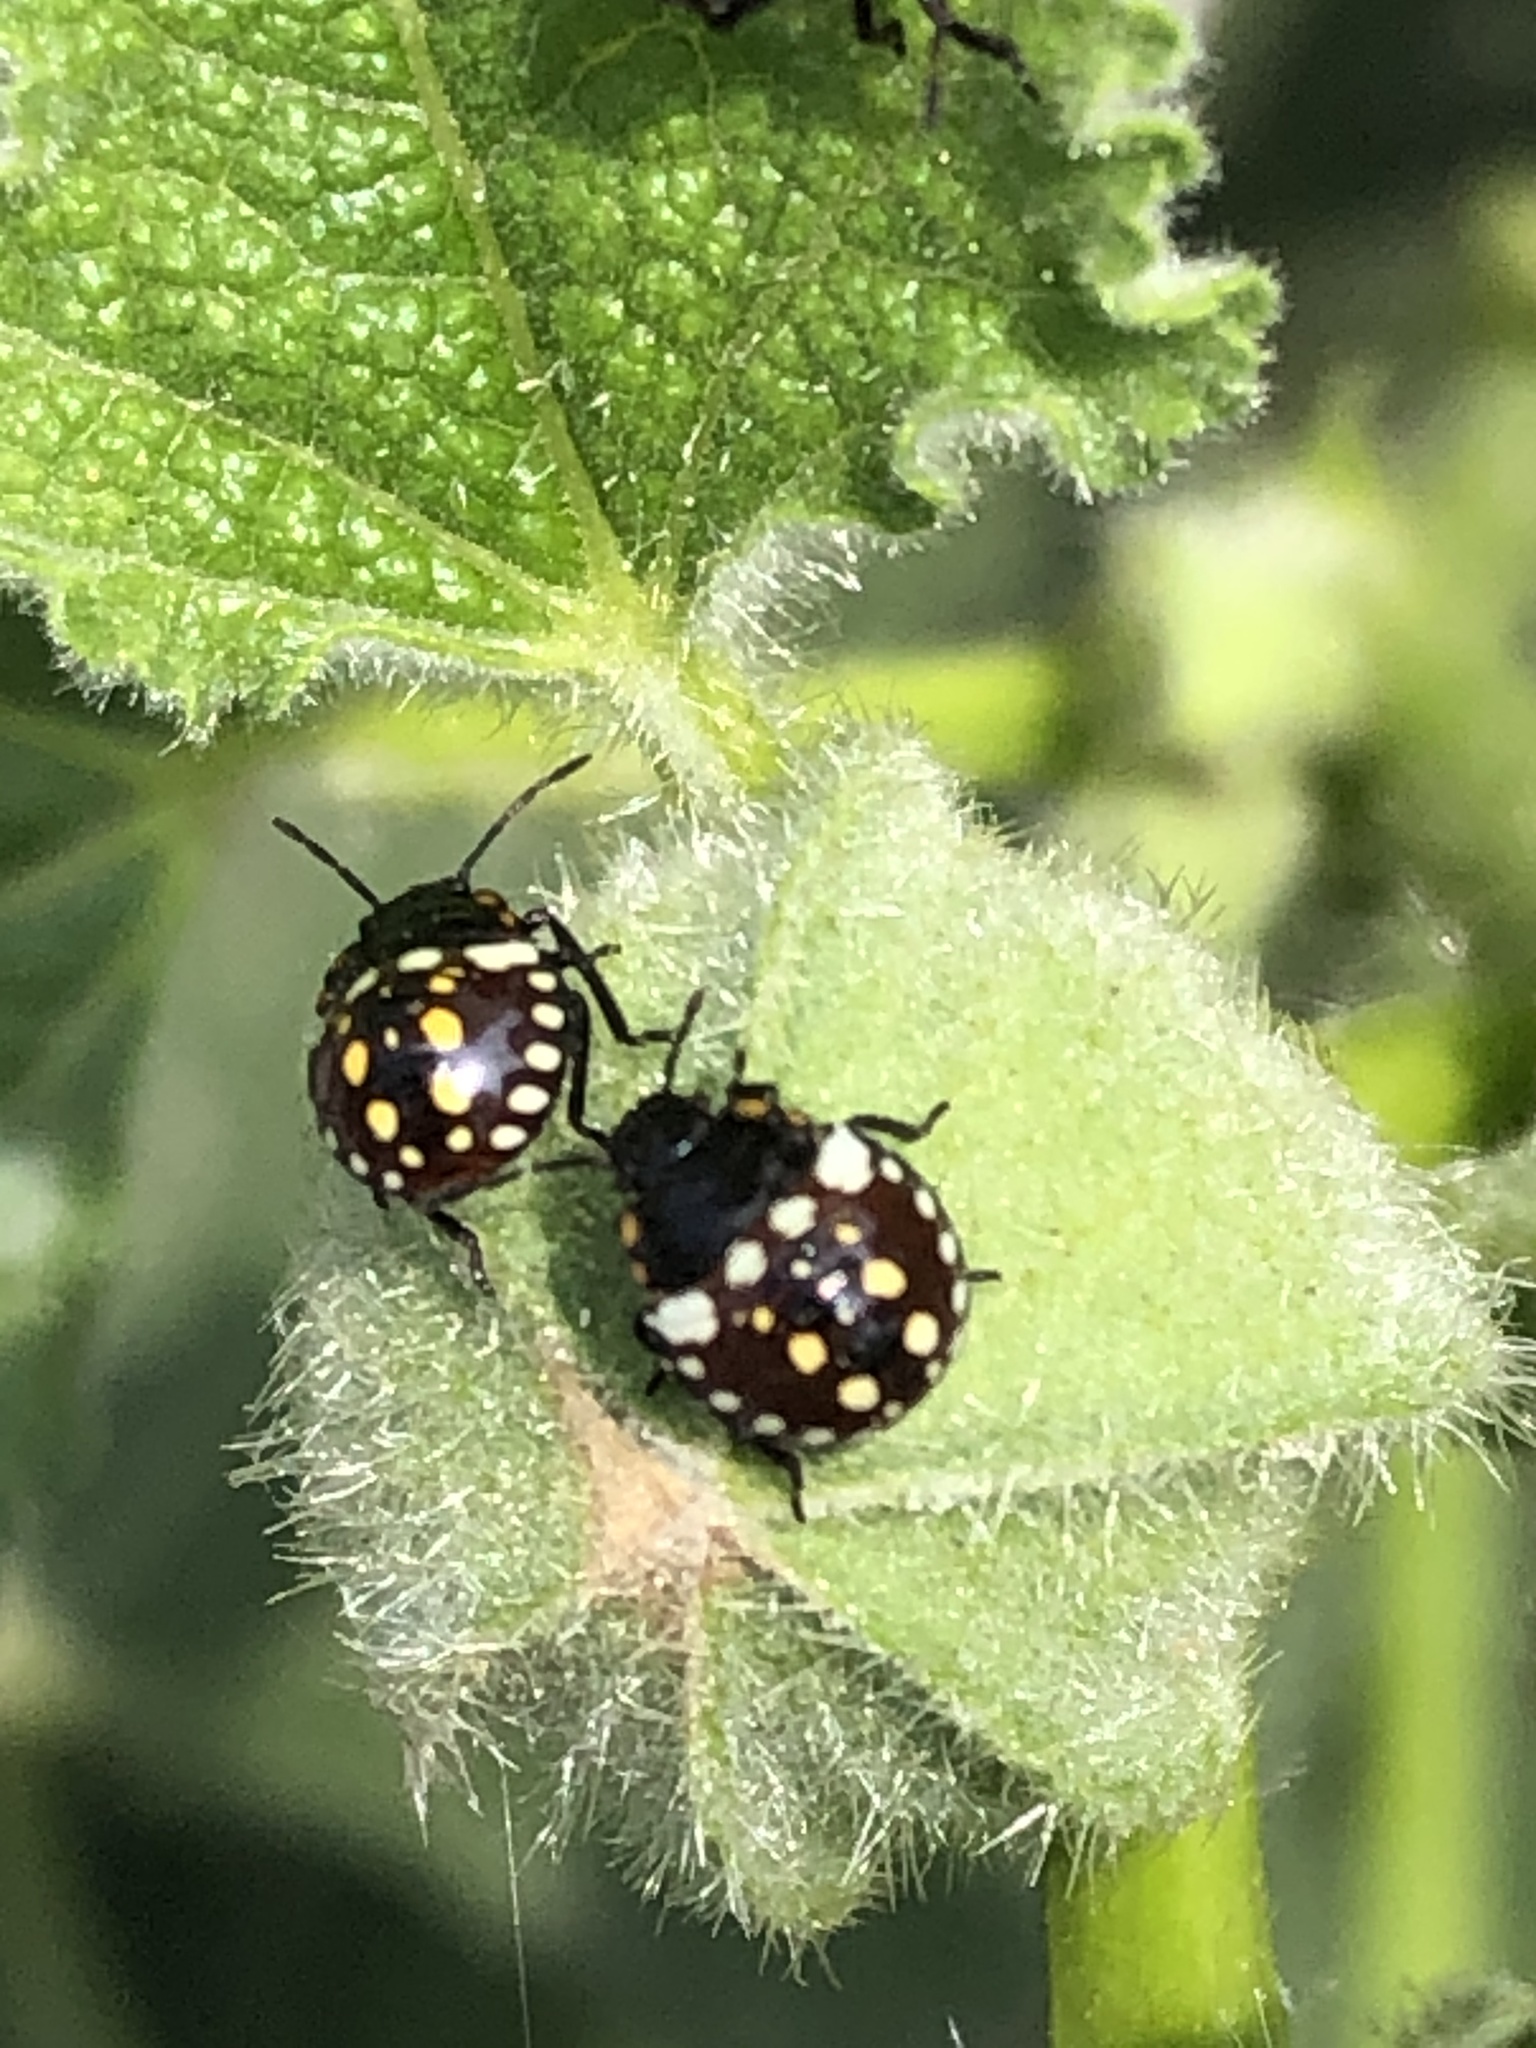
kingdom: Animalia
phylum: Arthropoda
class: Insecta
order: Hemiptera
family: Pentatomidae
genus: Nezara
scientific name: Nezara viridula
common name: Southern green stink bug
